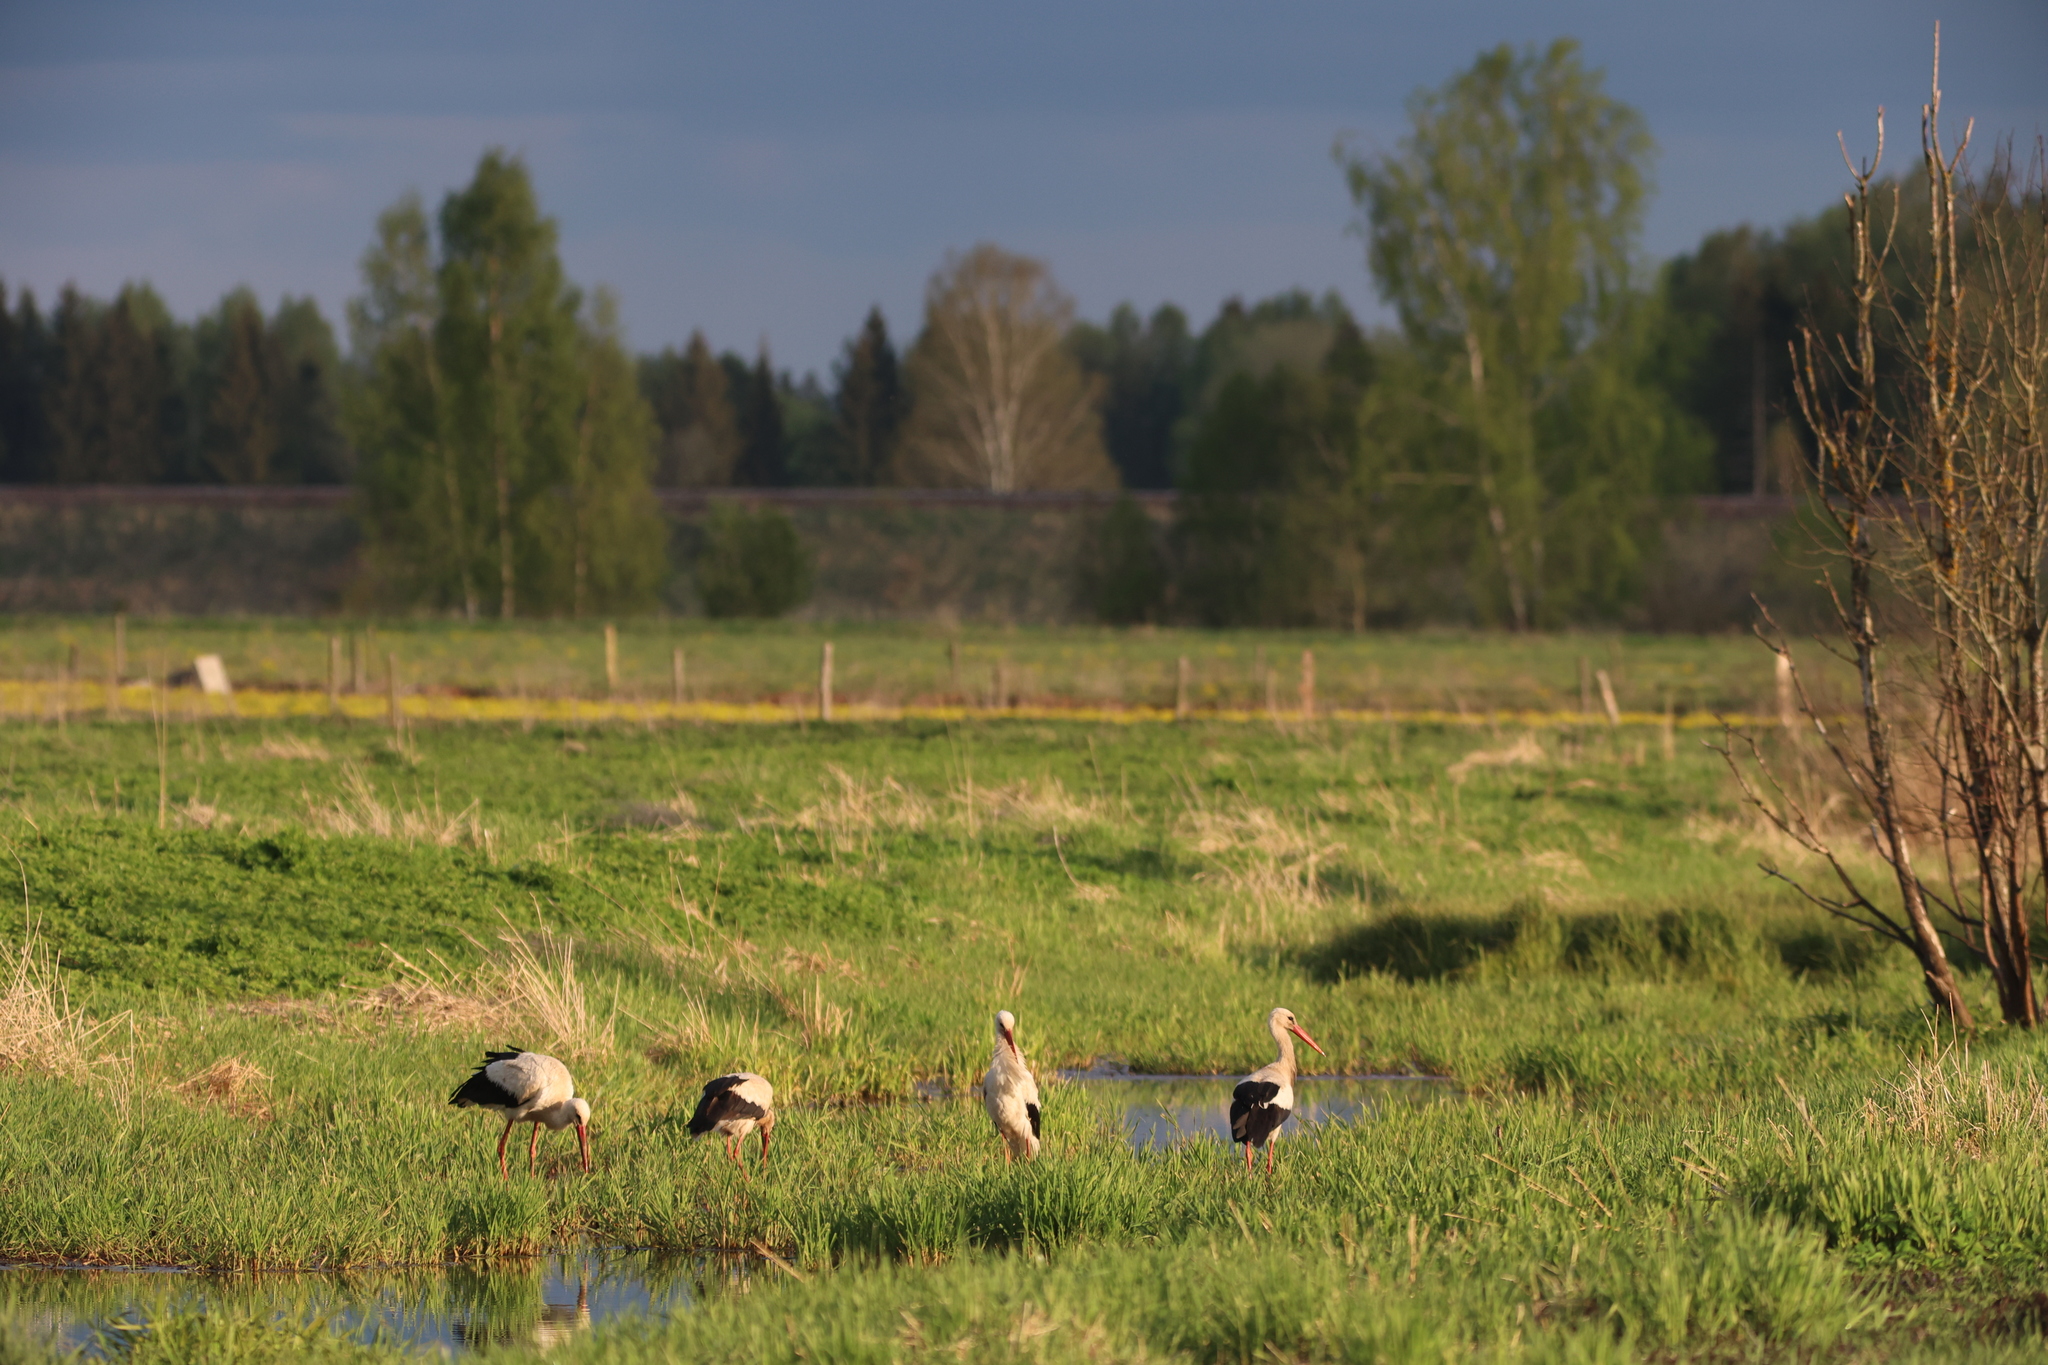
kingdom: Animalia
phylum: Chordata
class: Aves
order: Ciconiiformes
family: Ciconiidae
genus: Ciconia
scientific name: Ciconia ciconia
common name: White stork
